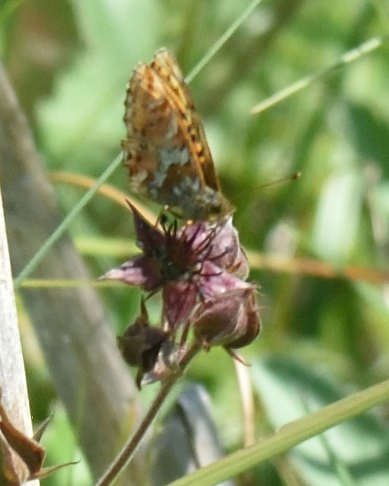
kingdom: Animalia
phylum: Arthropoda
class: Insecta
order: Lepidoptera
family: Nymphalidae
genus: Boloria
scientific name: Boloria aquilonaris
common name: Cranberry fritillary
